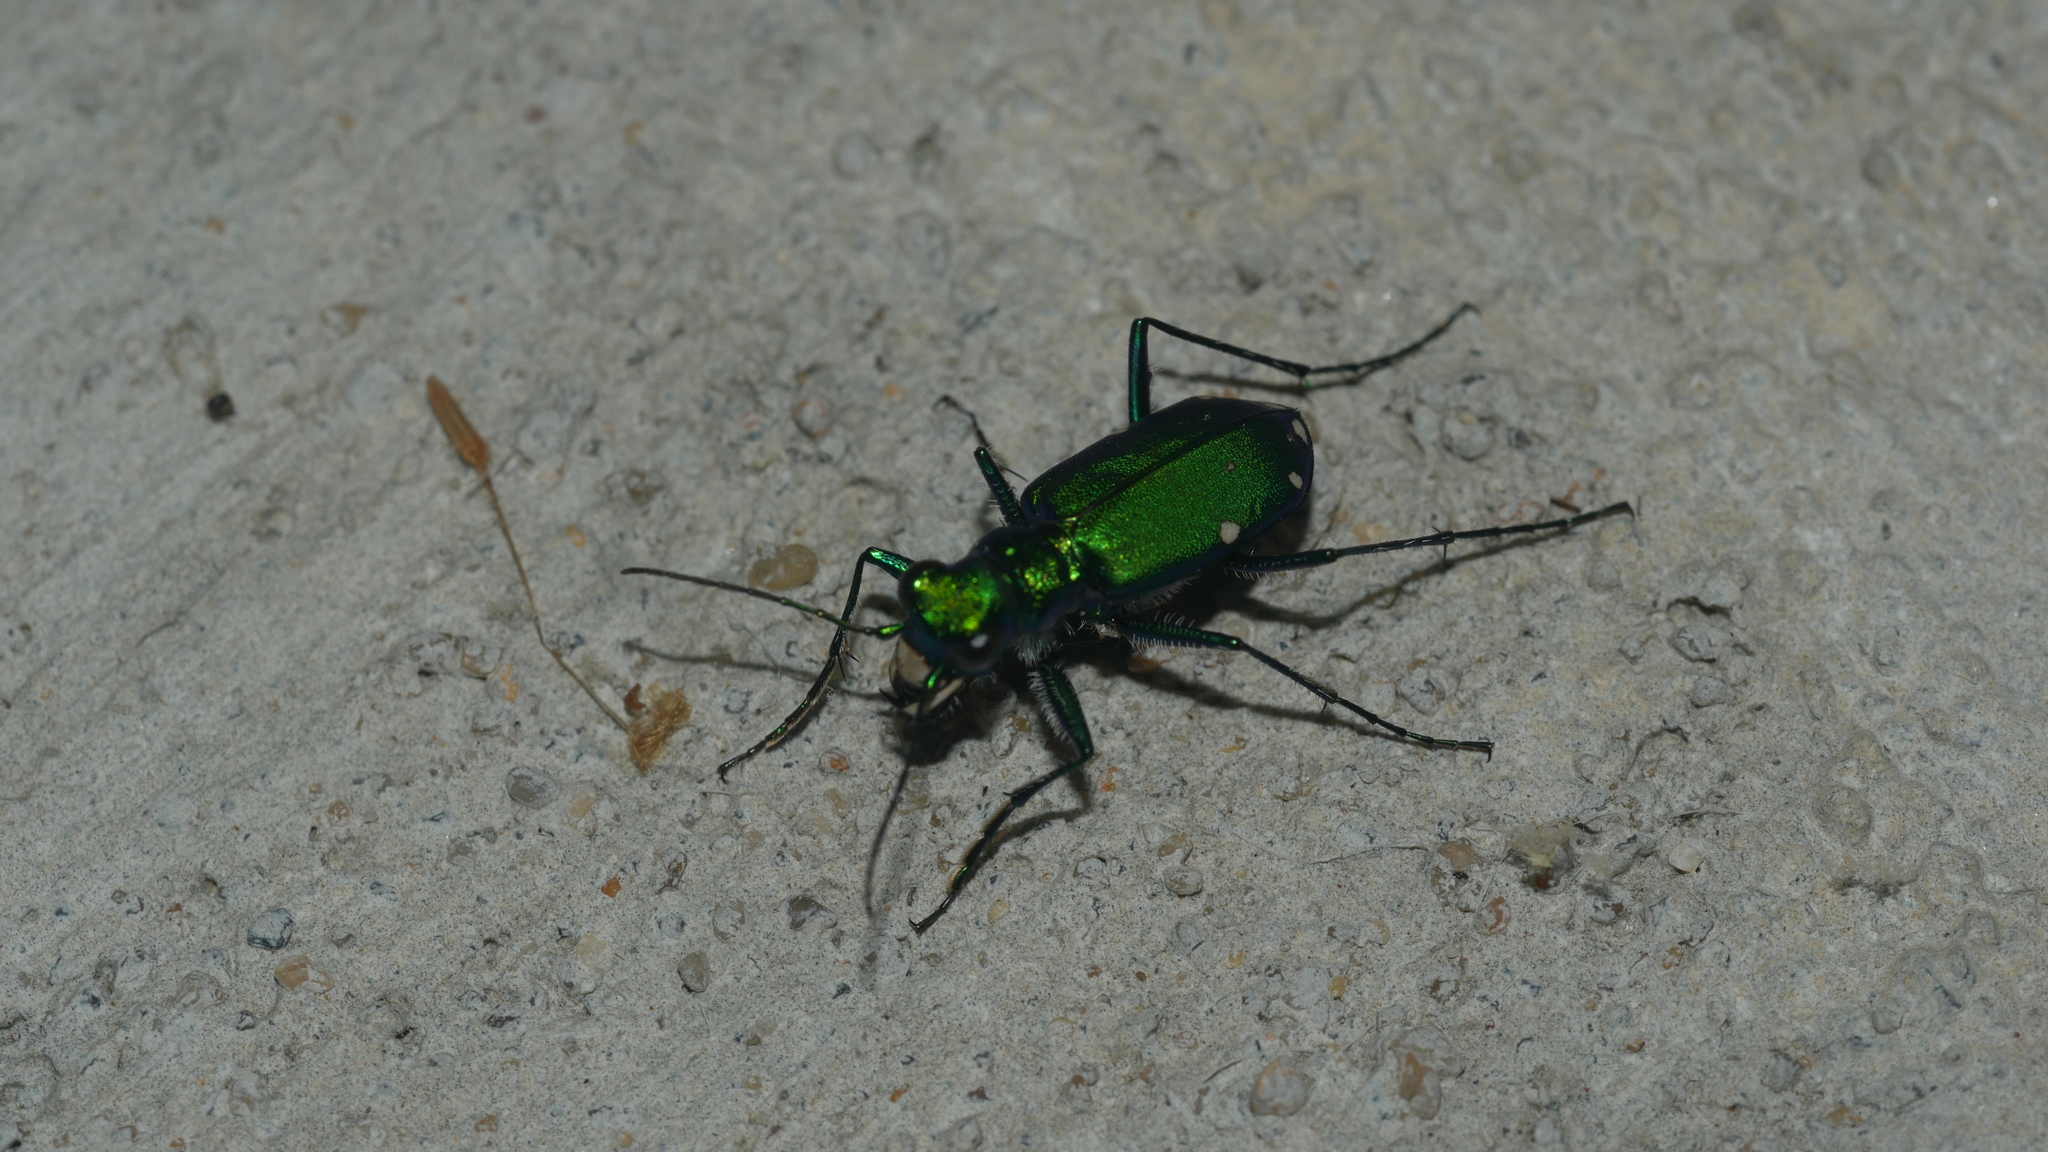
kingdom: Animalia
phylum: Arthropoda
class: Insecta
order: Coleoptera
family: Carabidae
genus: Cicindela
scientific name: Cicindela sexguttata
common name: Six-spotted tiger beetle
